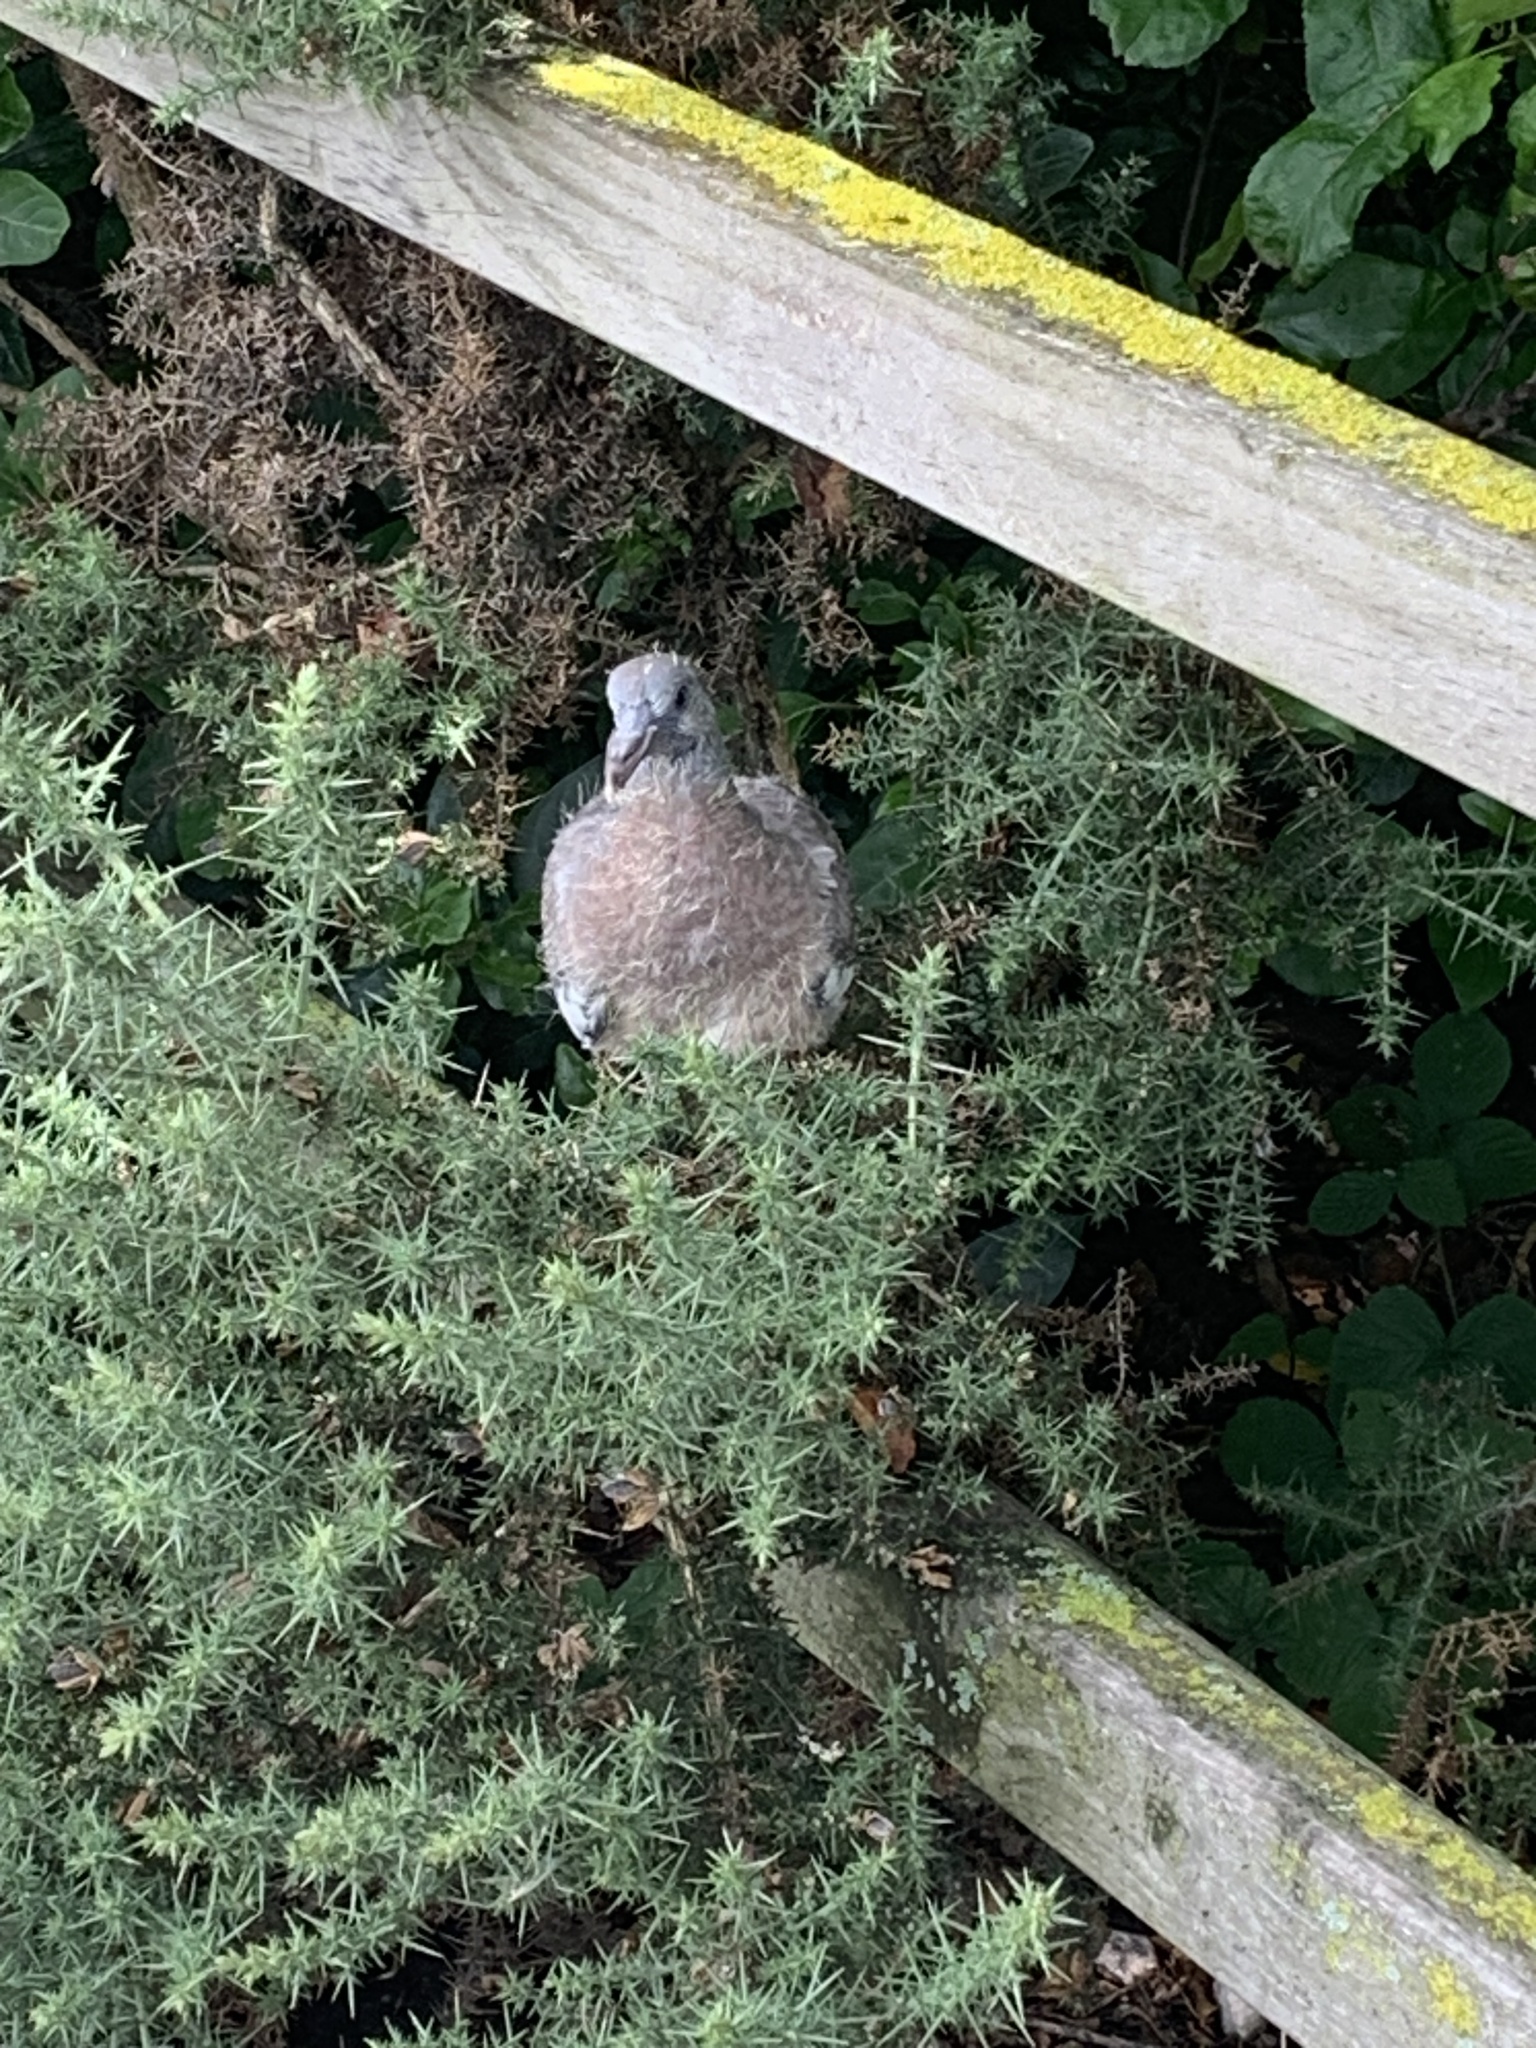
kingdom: Animalia
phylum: Chordata
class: Aves
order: Columbiformes
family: Columbidae
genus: Columba
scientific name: Columba palumbus
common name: Common wood pigeon
